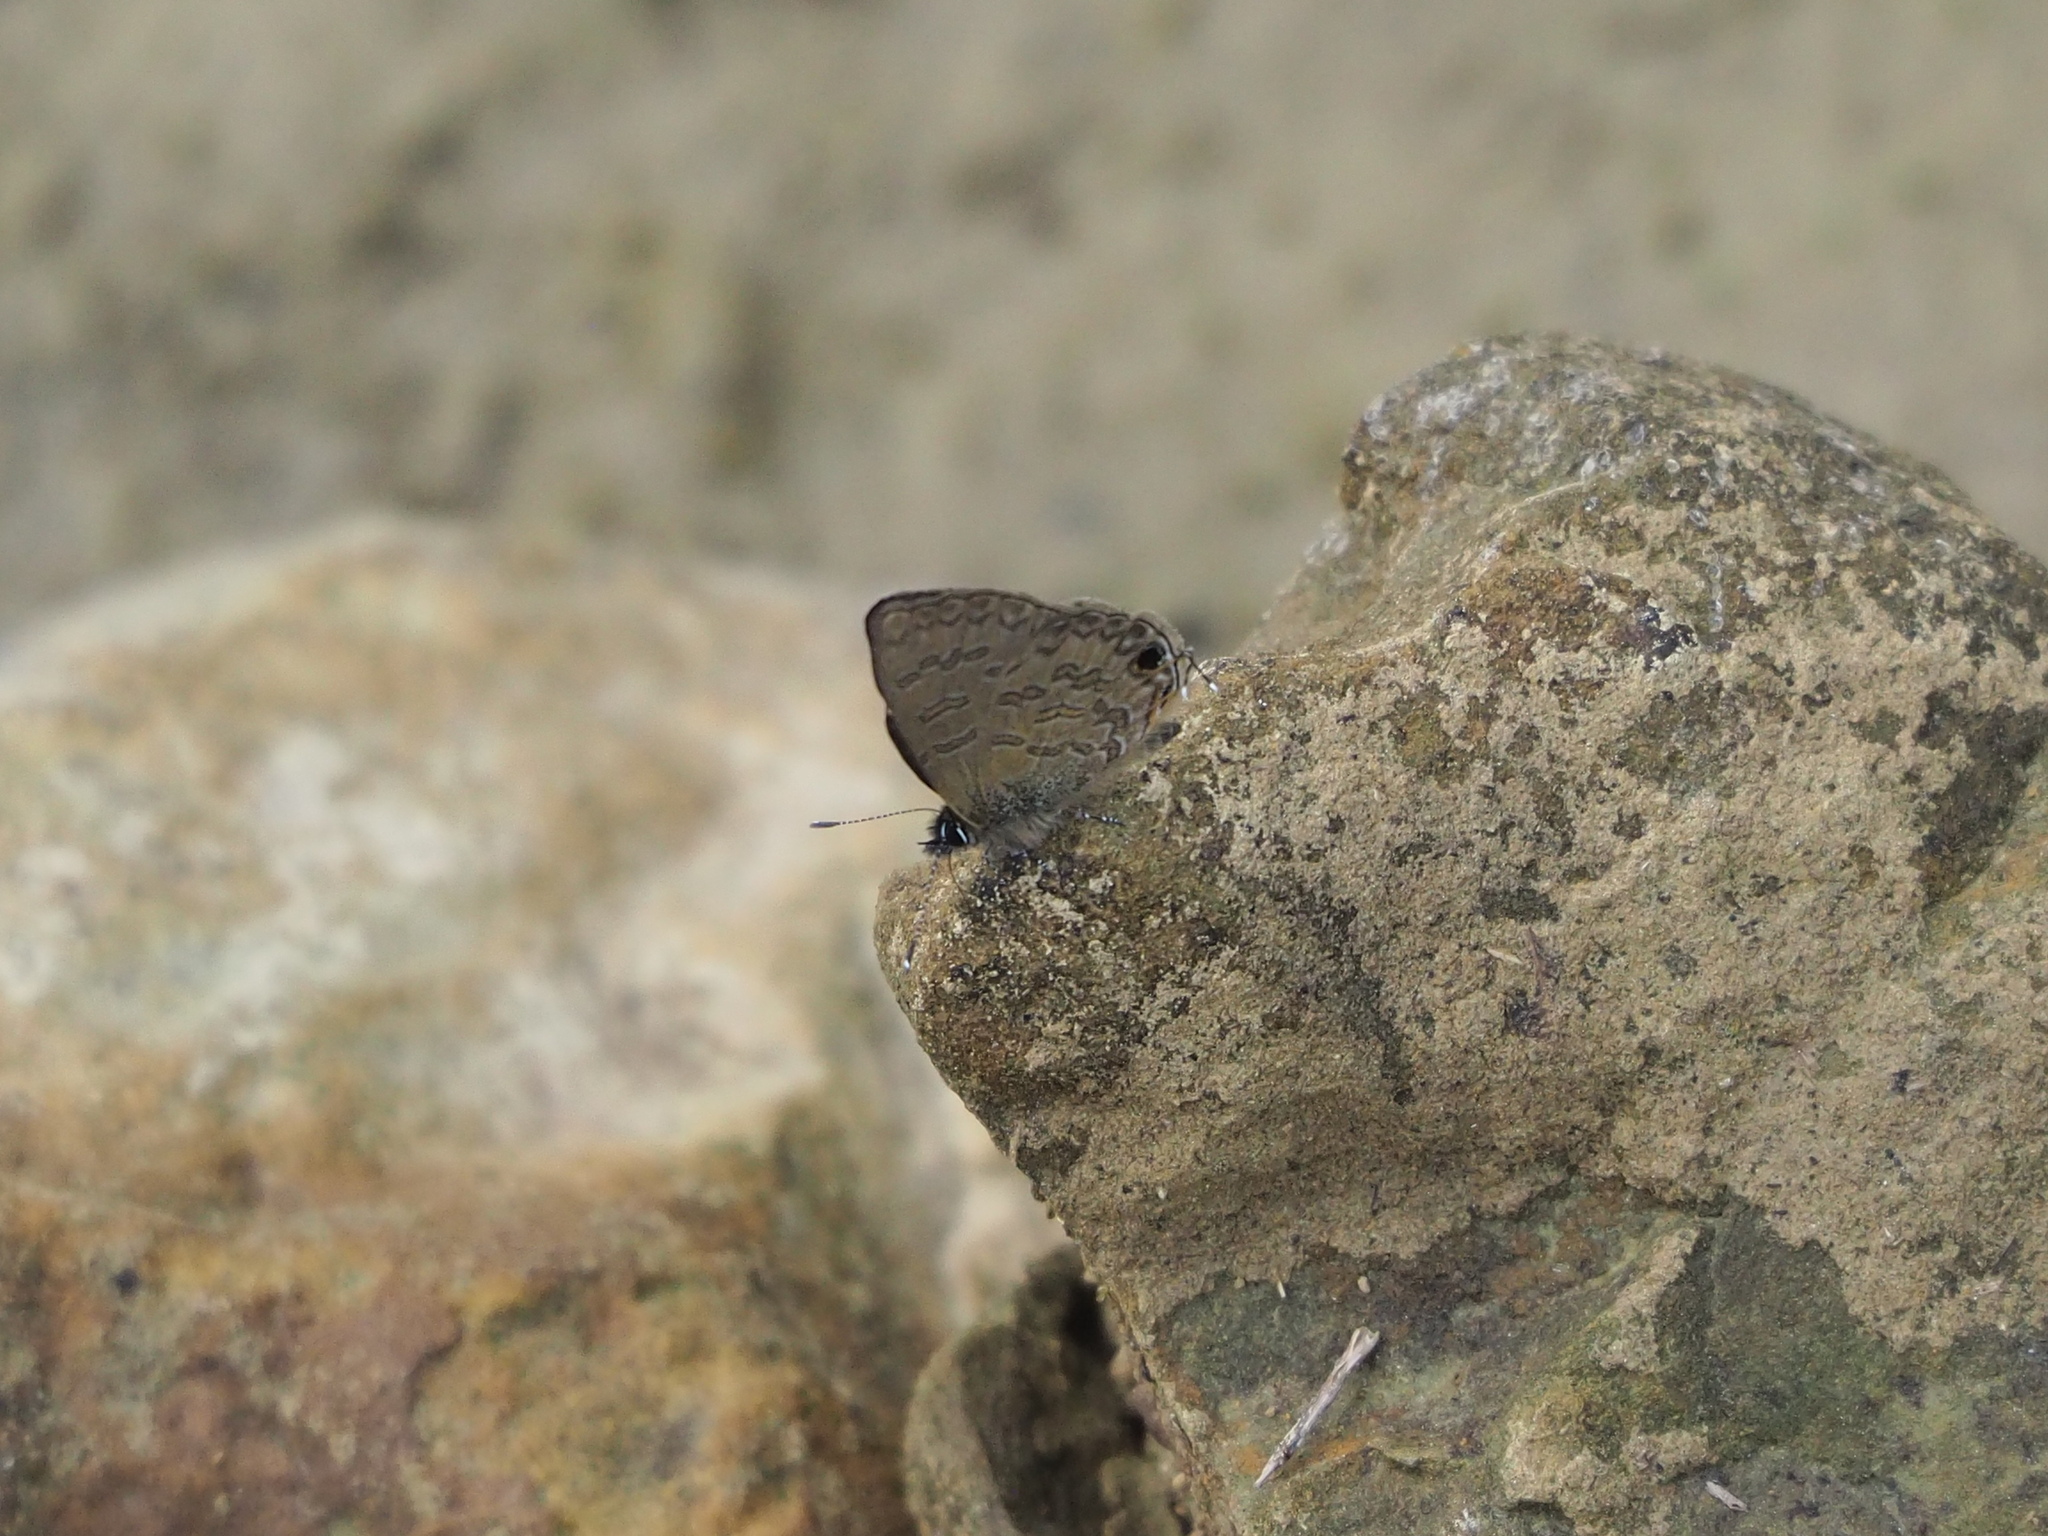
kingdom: Animalia
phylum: Arthropoda
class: Insecta
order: Lepidoptera
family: Lycaenidae
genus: Prosotas
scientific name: Prosotas nora
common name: Common line blue
